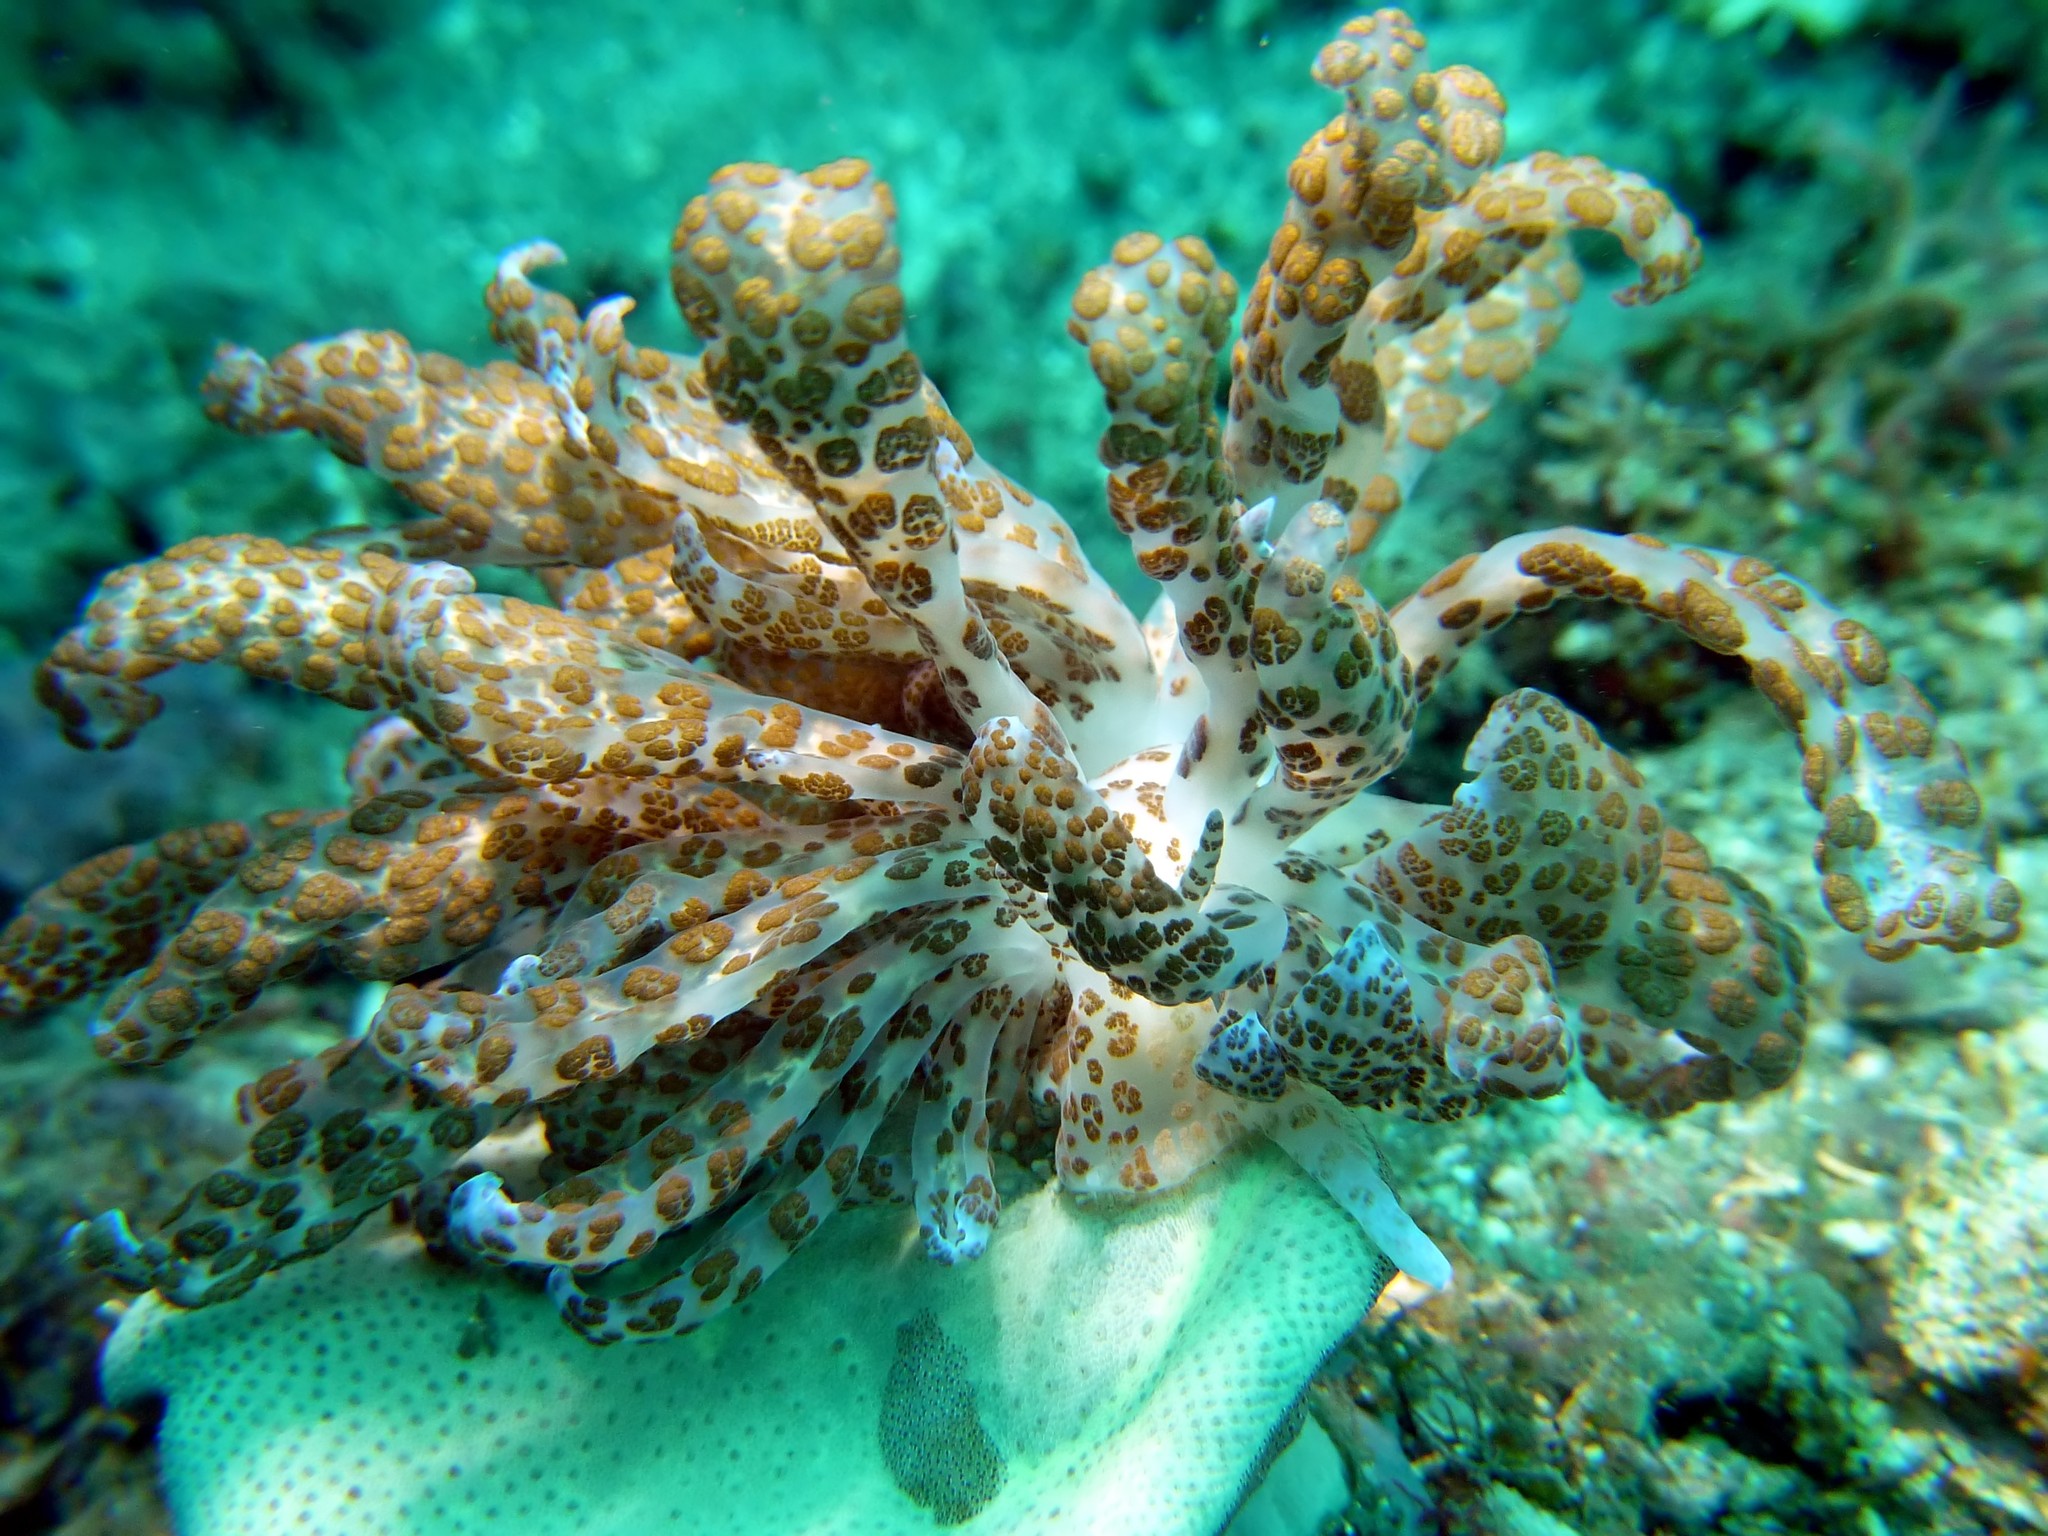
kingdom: Animalia
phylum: Mollusca
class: Gastropoda
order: Nudibranchia
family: Myrrhinidae
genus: Phyllodesmium
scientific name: Phyllodesmium longicirrum
